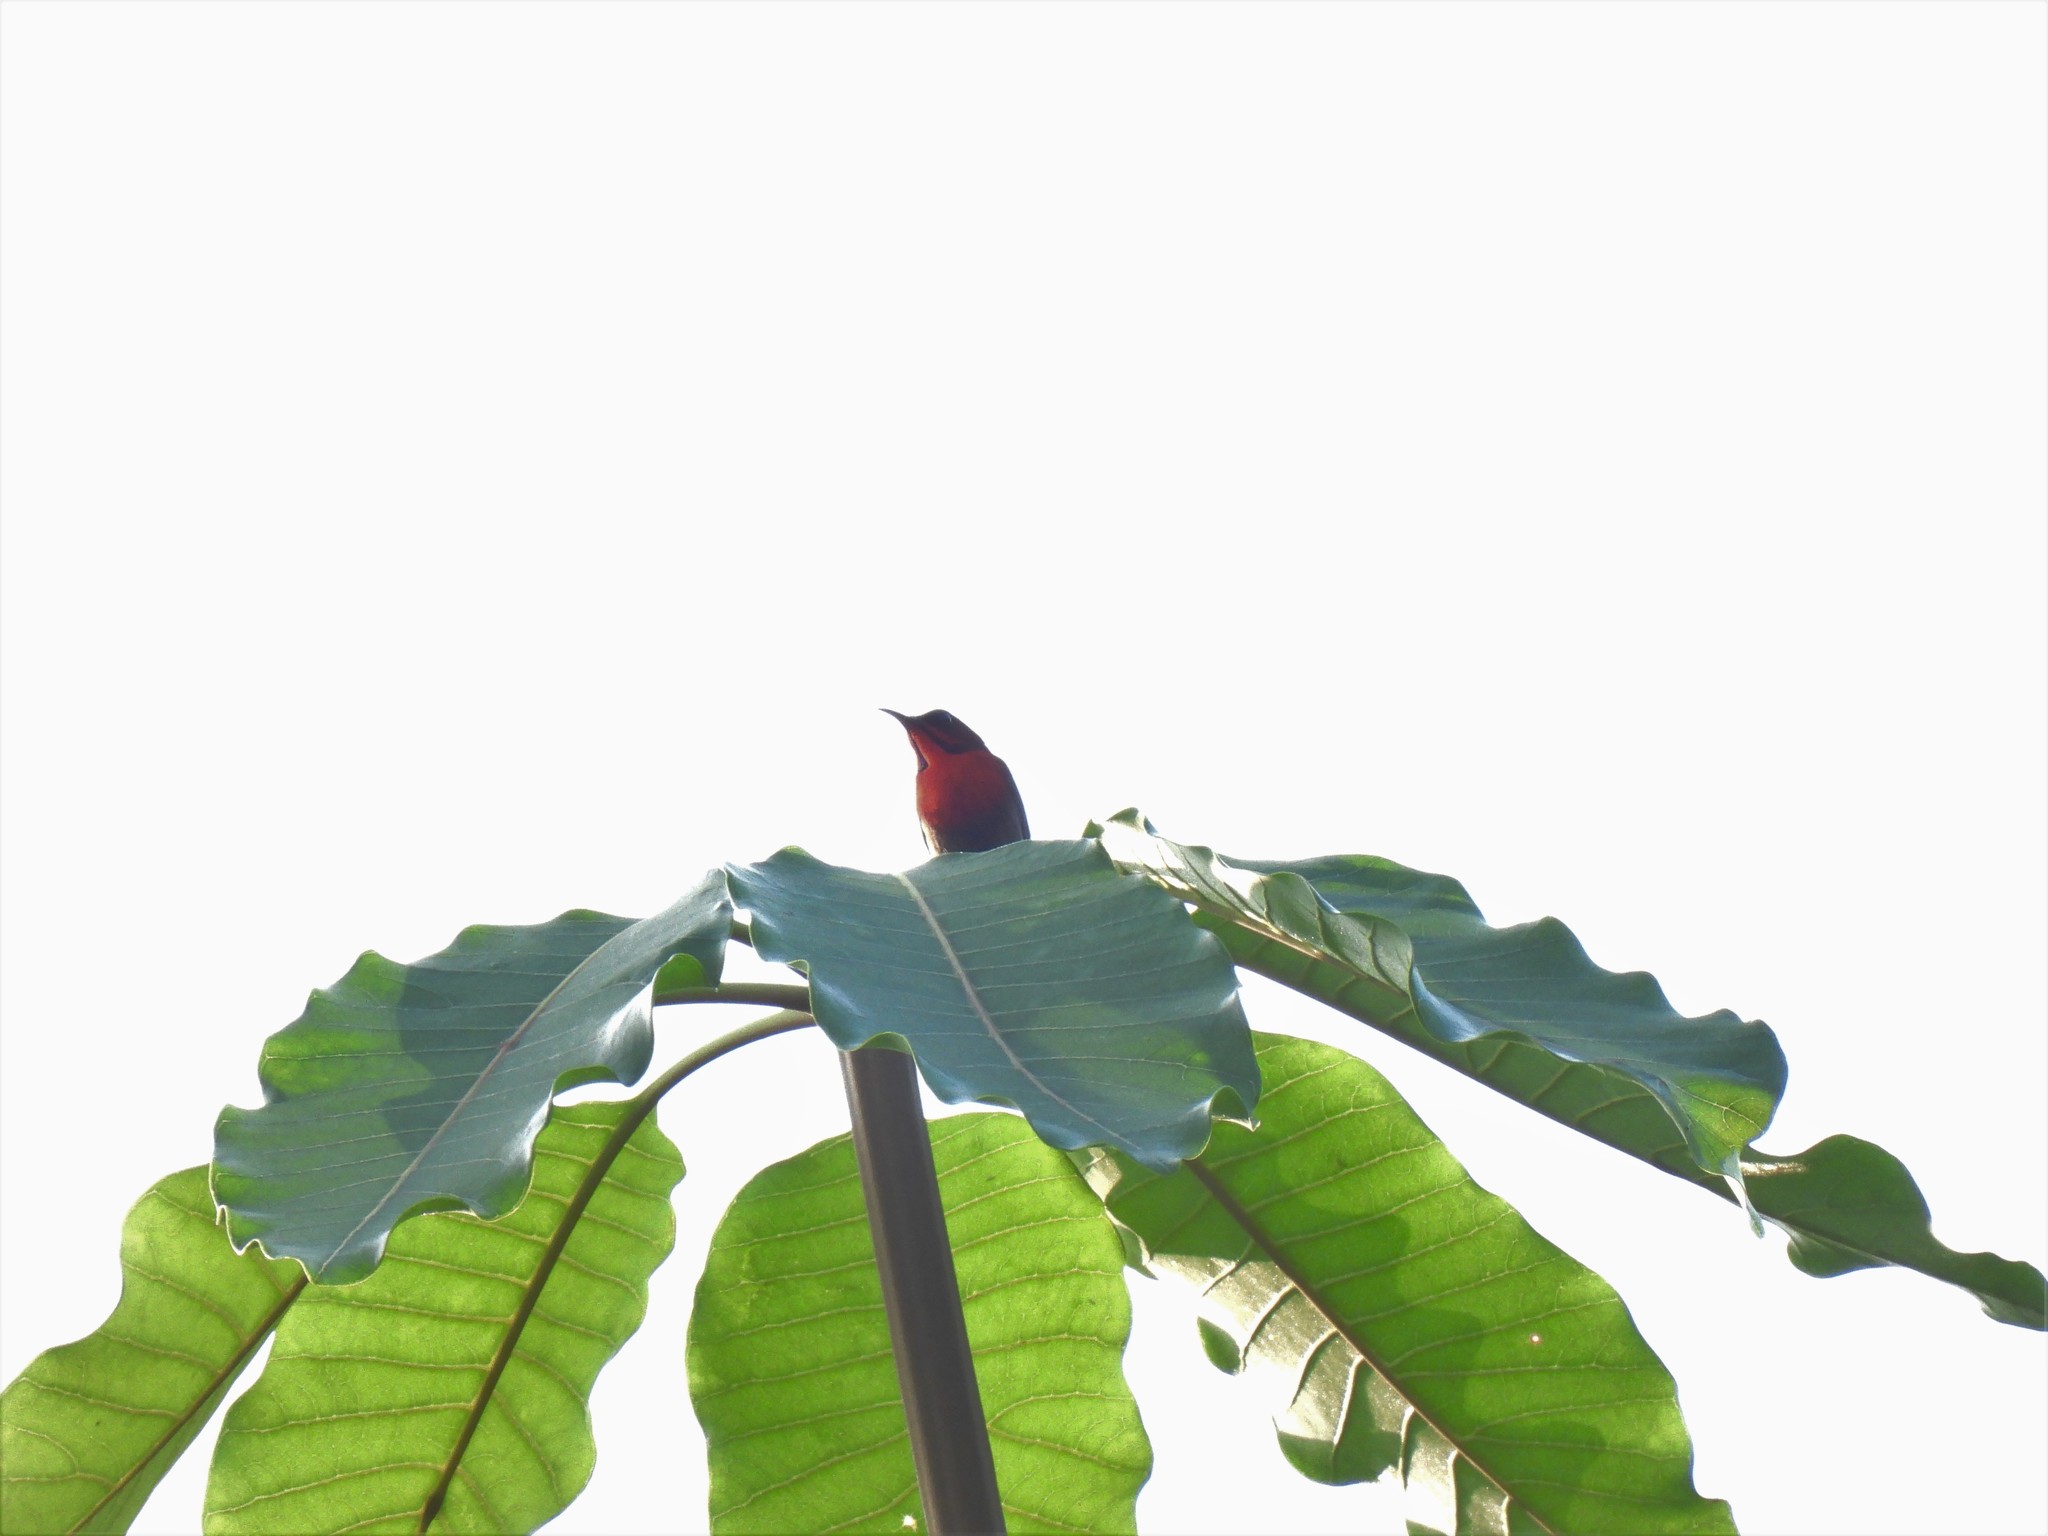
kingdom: Animalia
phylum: Chordata
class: Aves
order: Passeriformes
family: Nectariniidae
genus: Aethopyga
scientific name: Aethopyga siparaja
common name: Crimson sunbird
